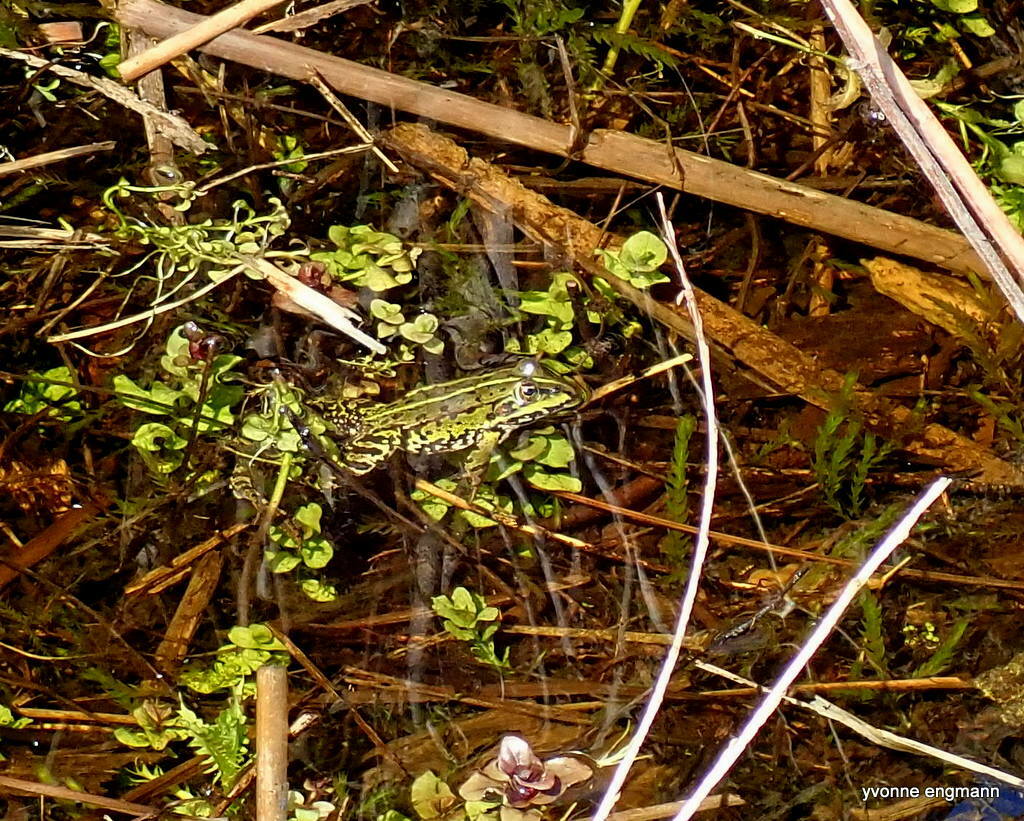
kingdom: Animalia
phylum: Chordata
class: Amphibia
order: Anura
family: Ranidae
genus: Pelophylax
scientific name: Pelophylax lessonae
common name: Pool frog
